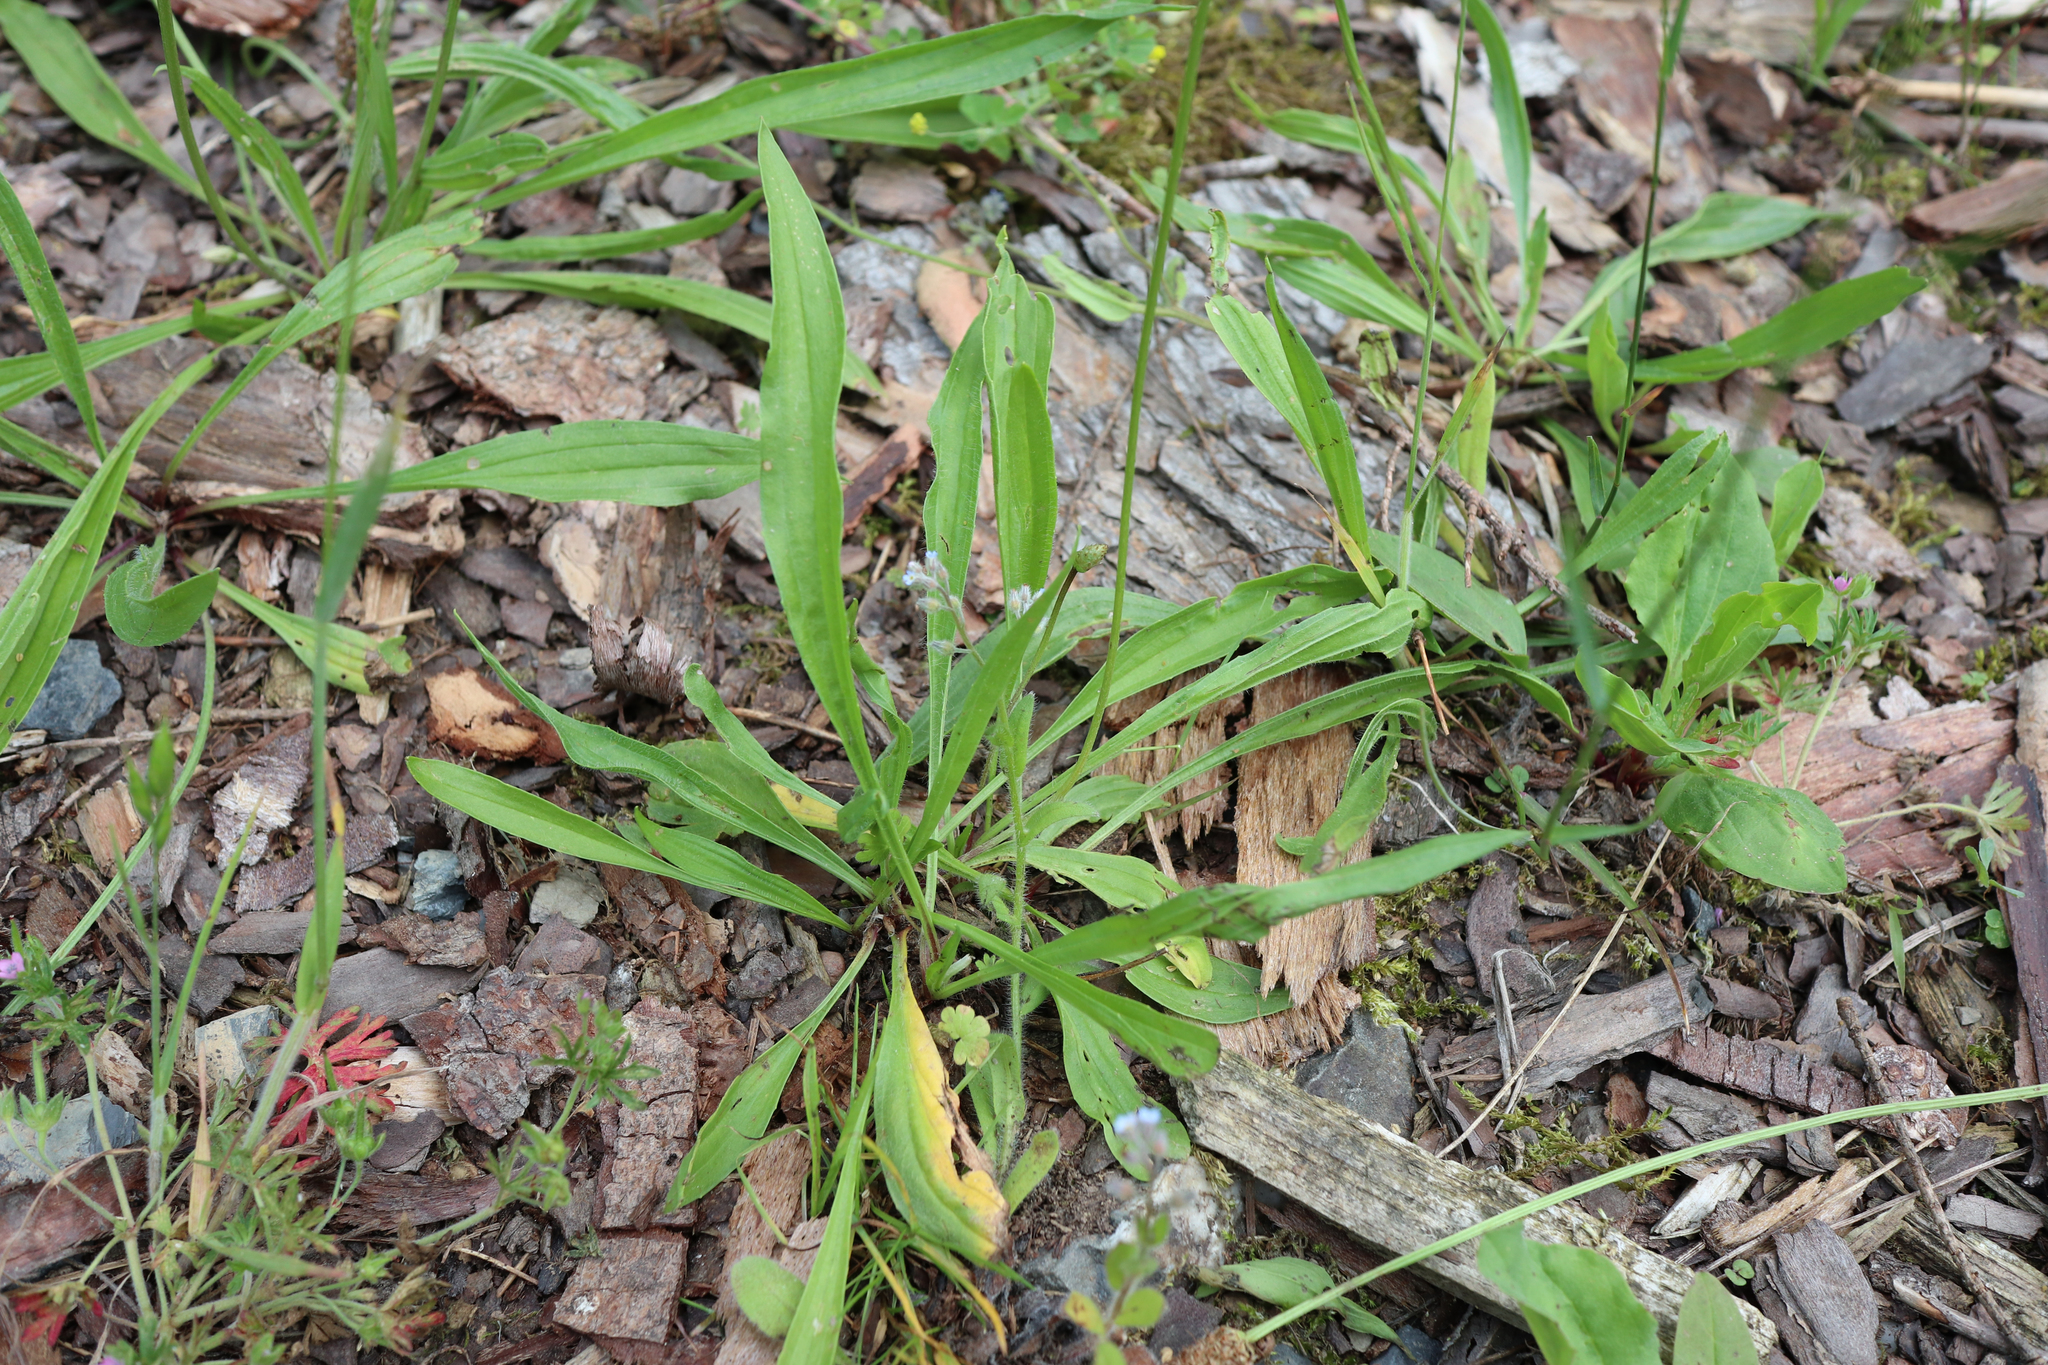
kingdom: Plantae
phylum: Tracheophyta
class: Magnoliopsida
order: Lamiales
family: Plantaginaceae
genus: Plantago
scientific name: Plantago lanceolata
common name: Ribwort plantain
